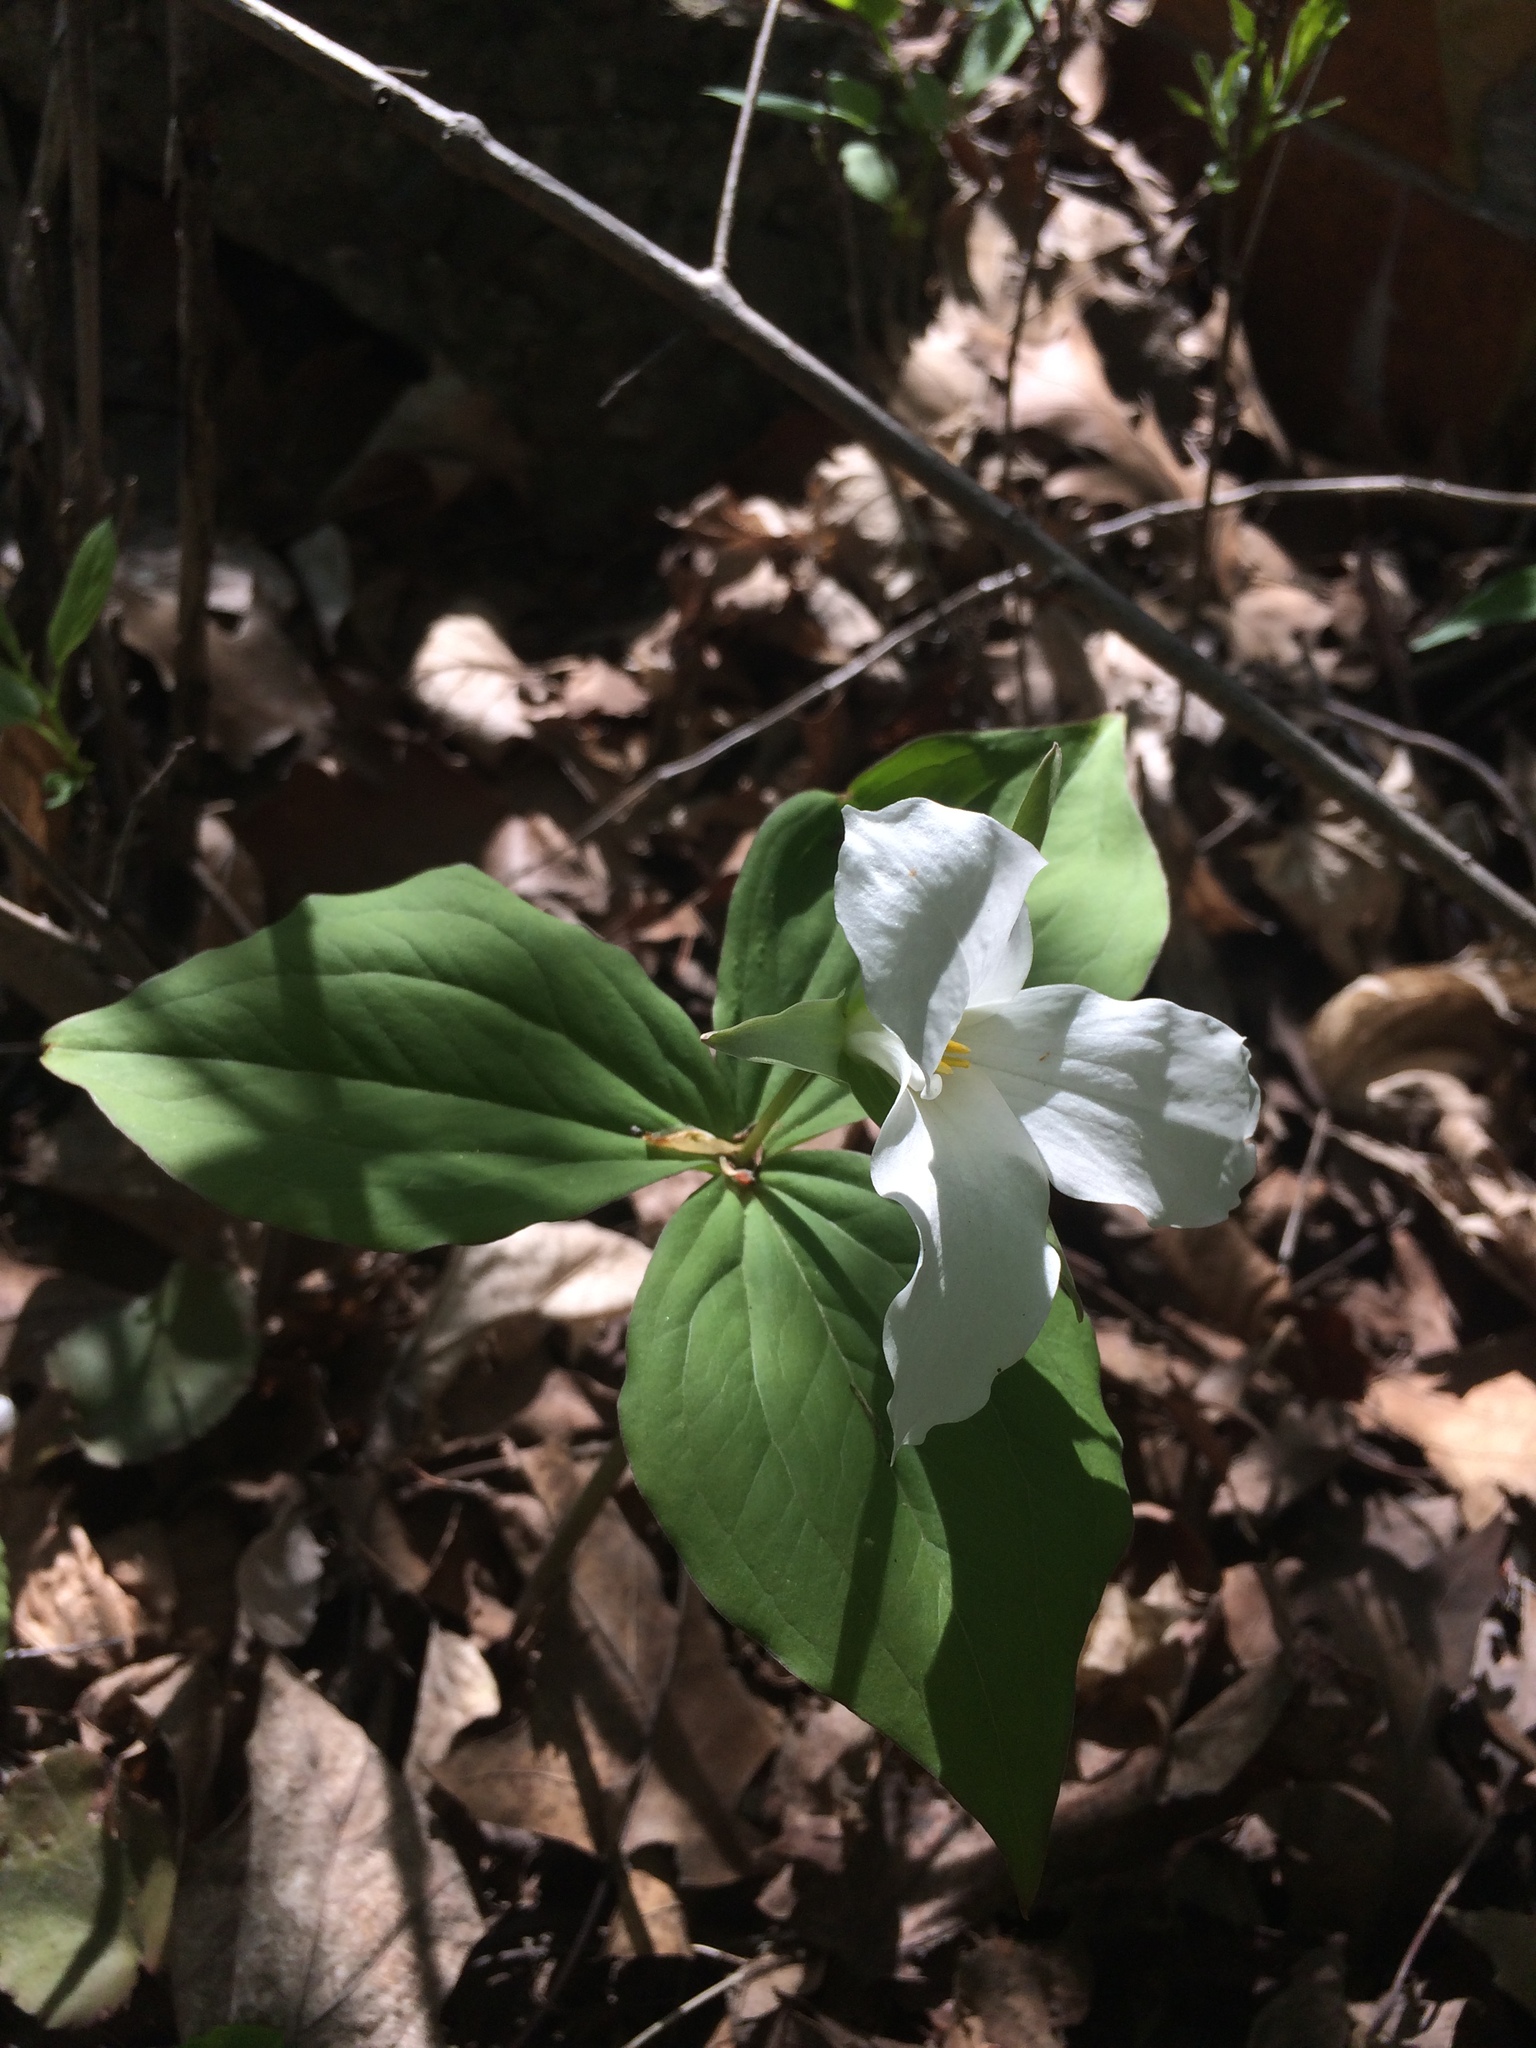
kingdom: Plantae
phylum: Tracheophyta
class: Liliopsida
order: Liliales
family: Melanthiaceae
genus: Trillium
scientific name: Trillium grandiflorum
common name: Great white trillium
